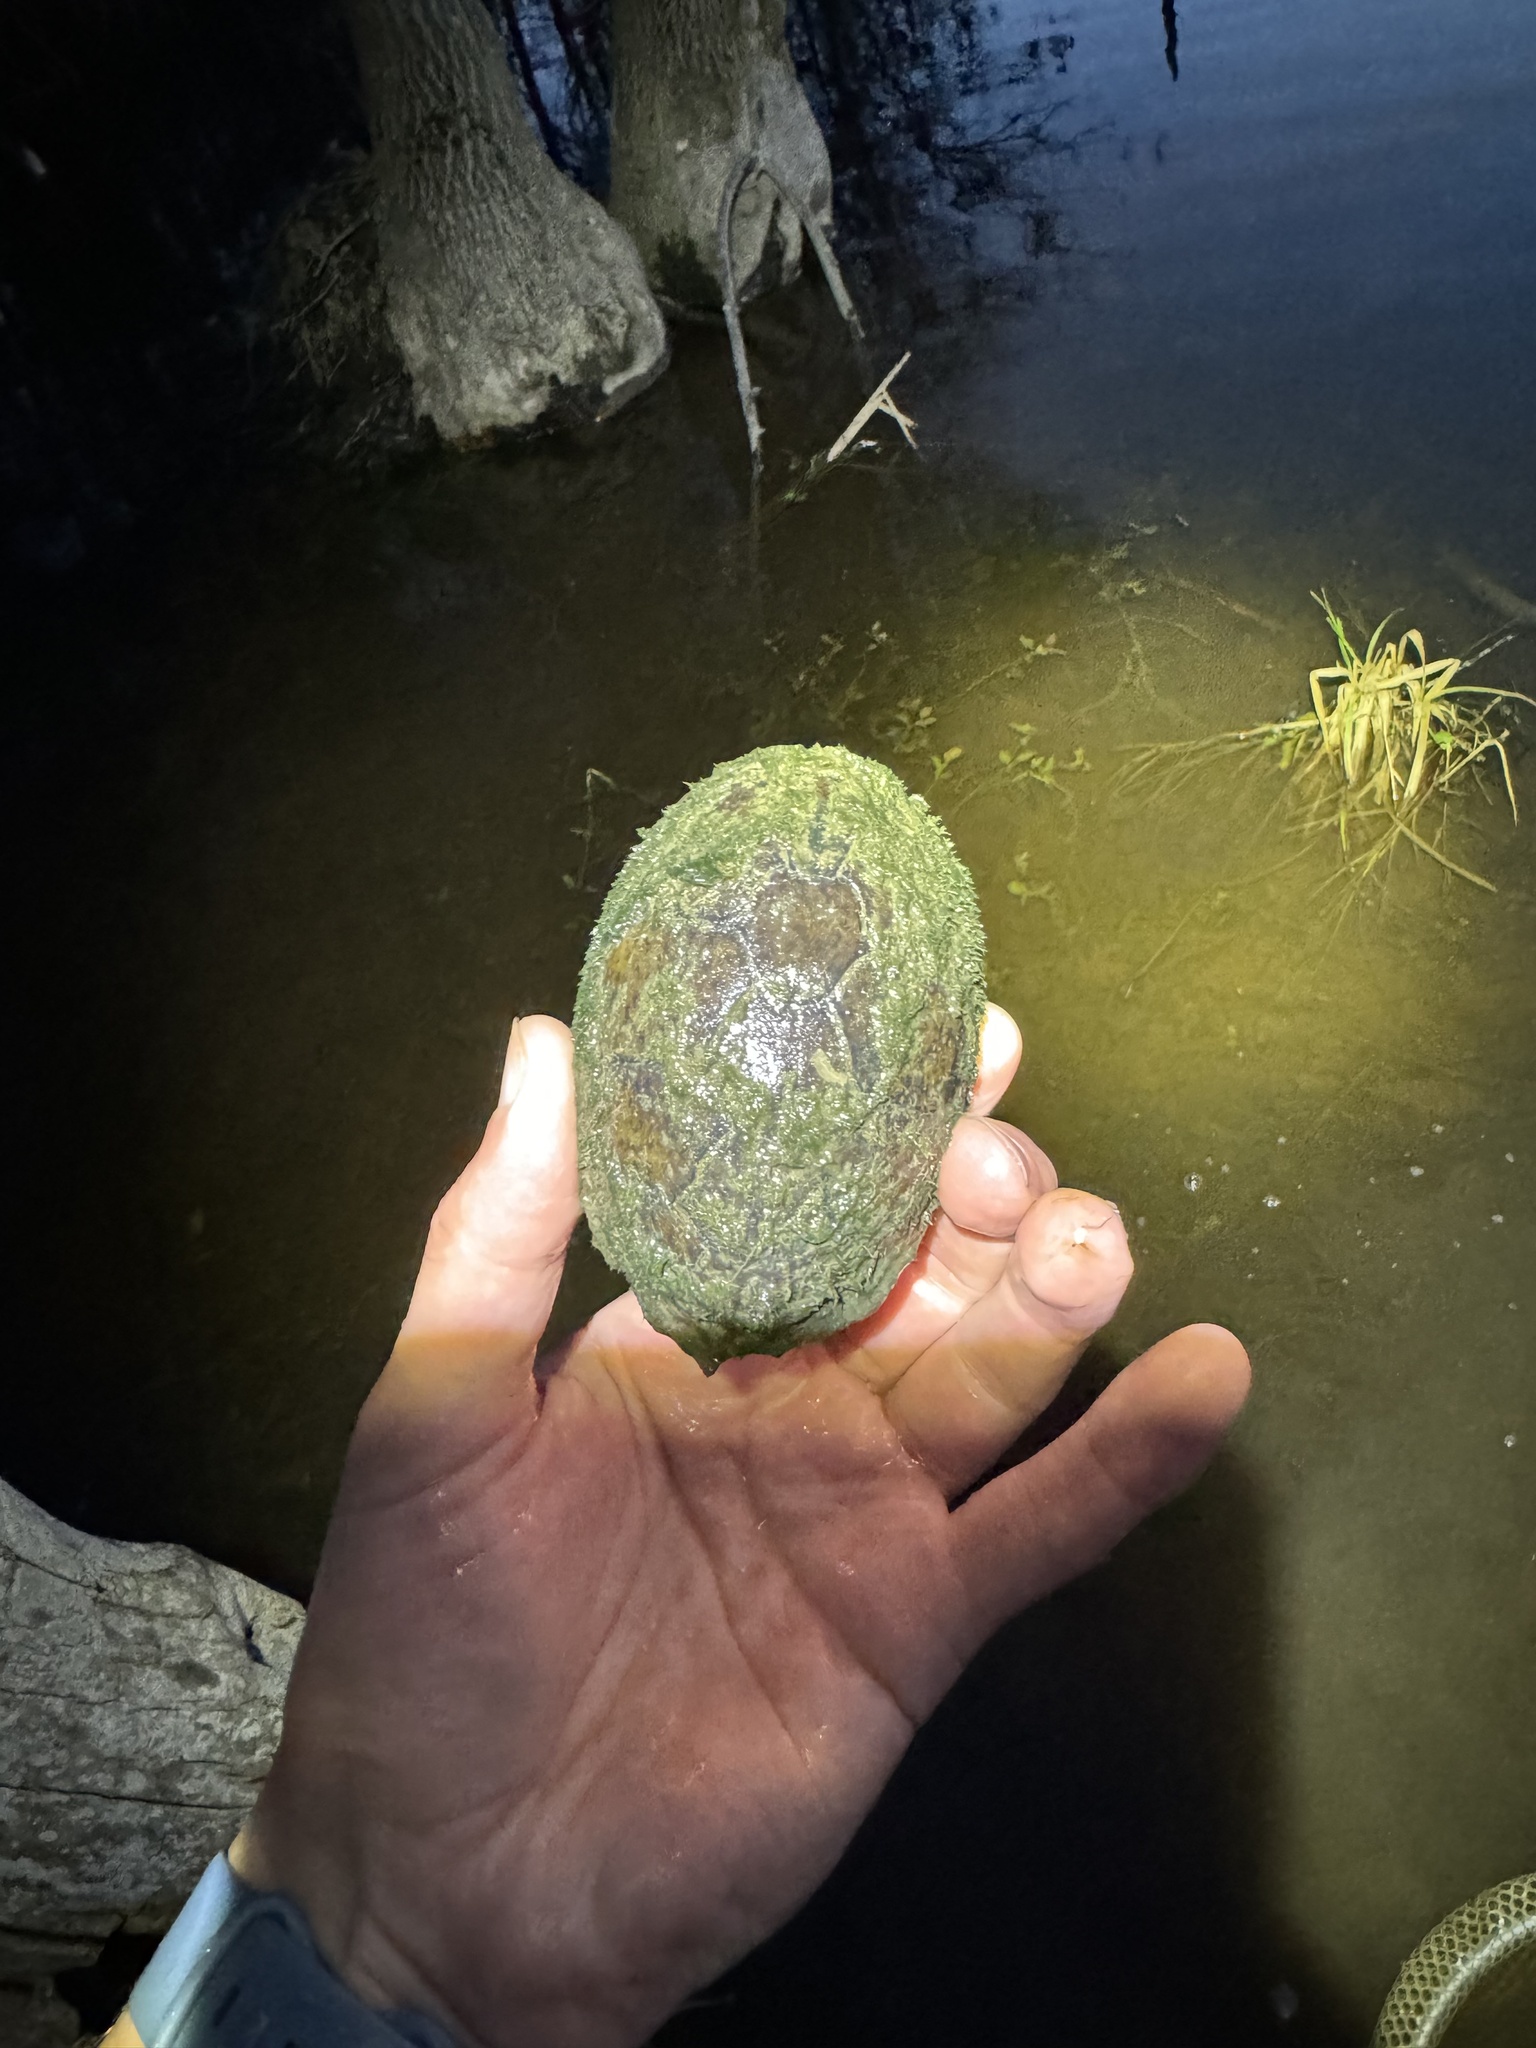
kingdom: Animalia
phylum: Chordata
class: Testudines
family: Kinosternidae
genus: Sternotherus
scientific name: Sternotherus odoratus
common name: Common musk turtle
